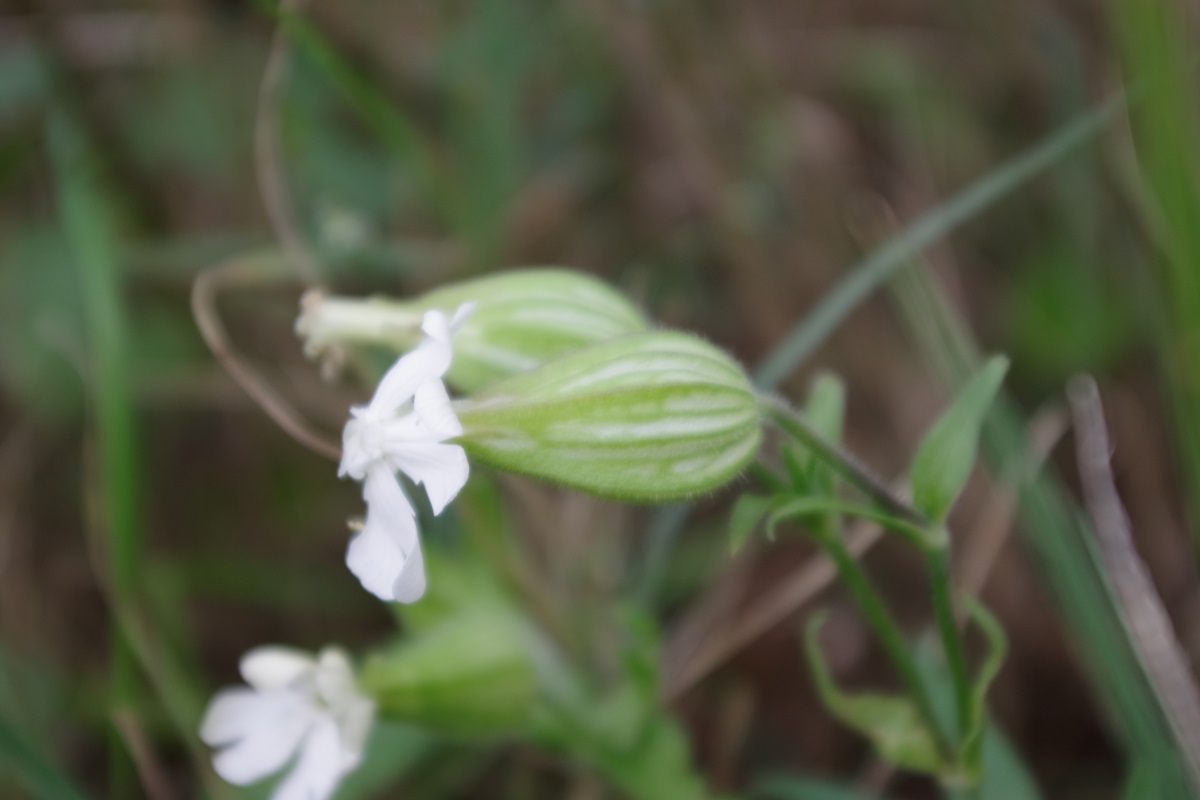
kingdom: Plantae
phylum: Tracheophyta
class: Magnoliopsida
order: Caryophyllales
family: Caryophyllaceae
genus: Silene
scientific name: Silene latifolia
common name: White campion
